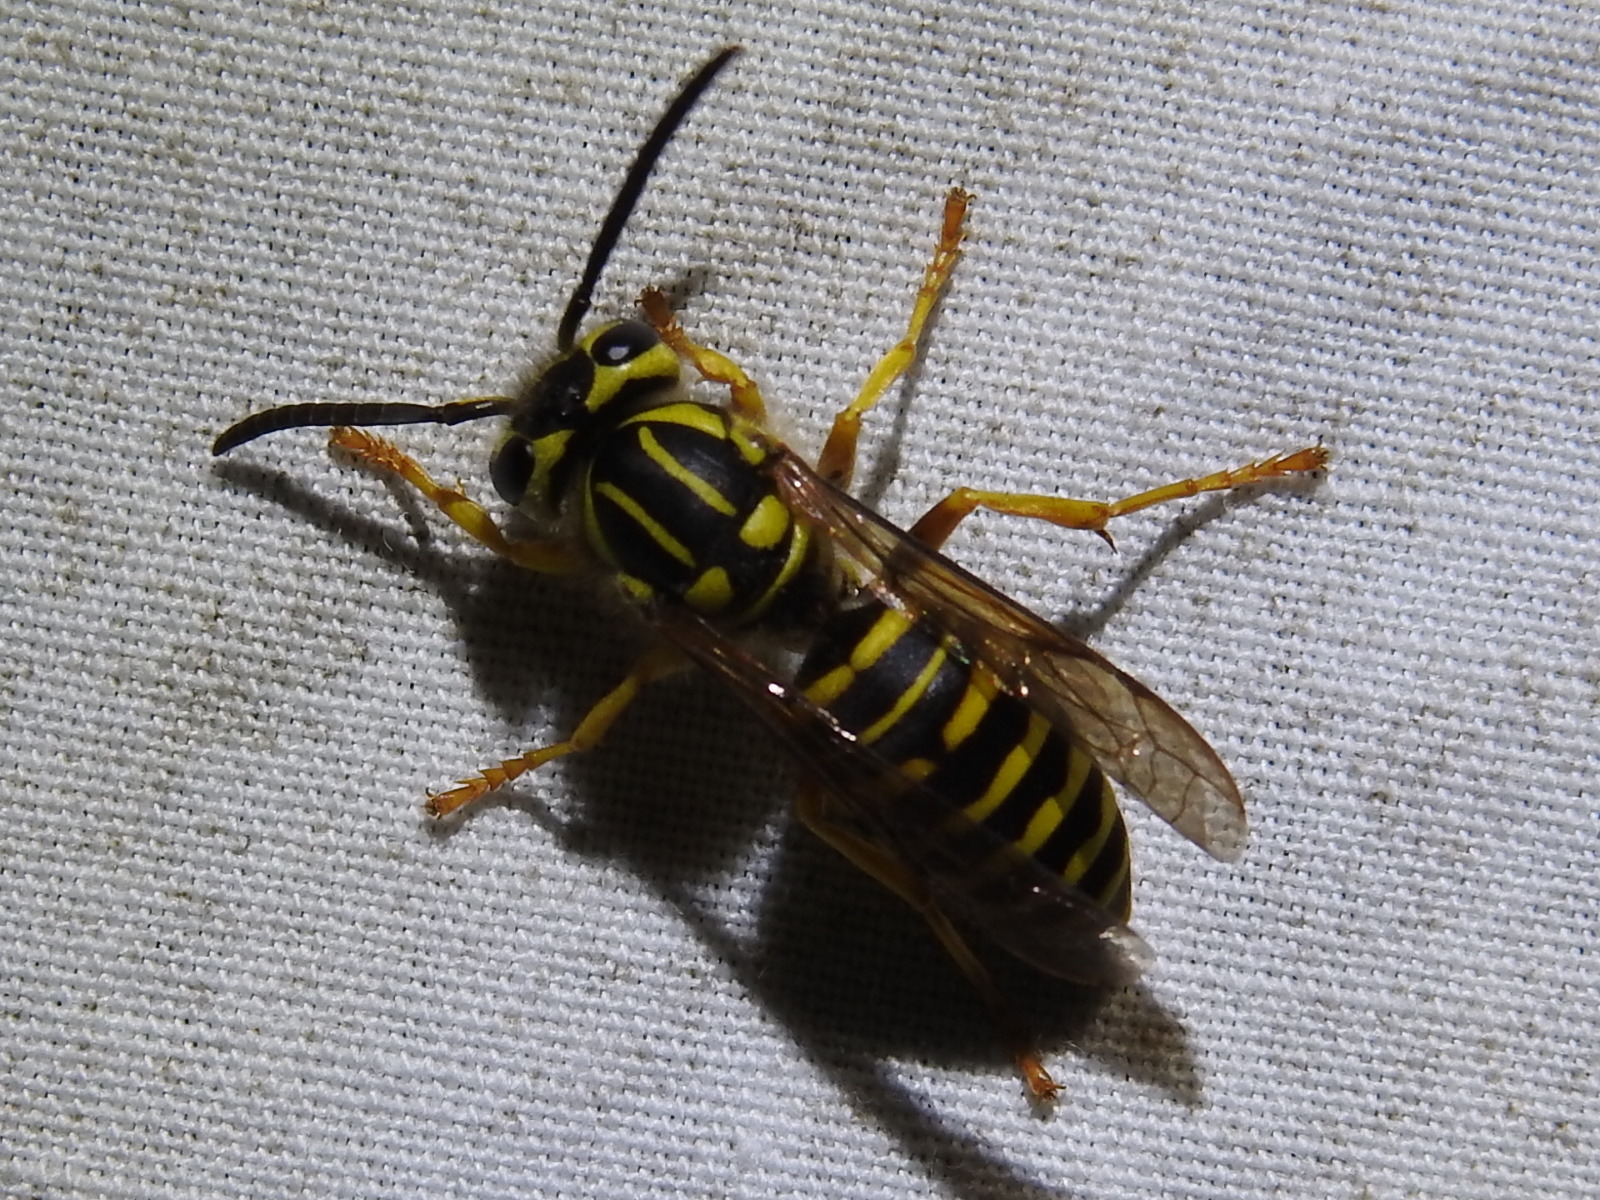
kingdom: Animalia
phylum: Arthropoda
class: Insecta
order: Hymenoptera
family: Vespidae
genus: Vespula
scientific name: Vespula squamosa
